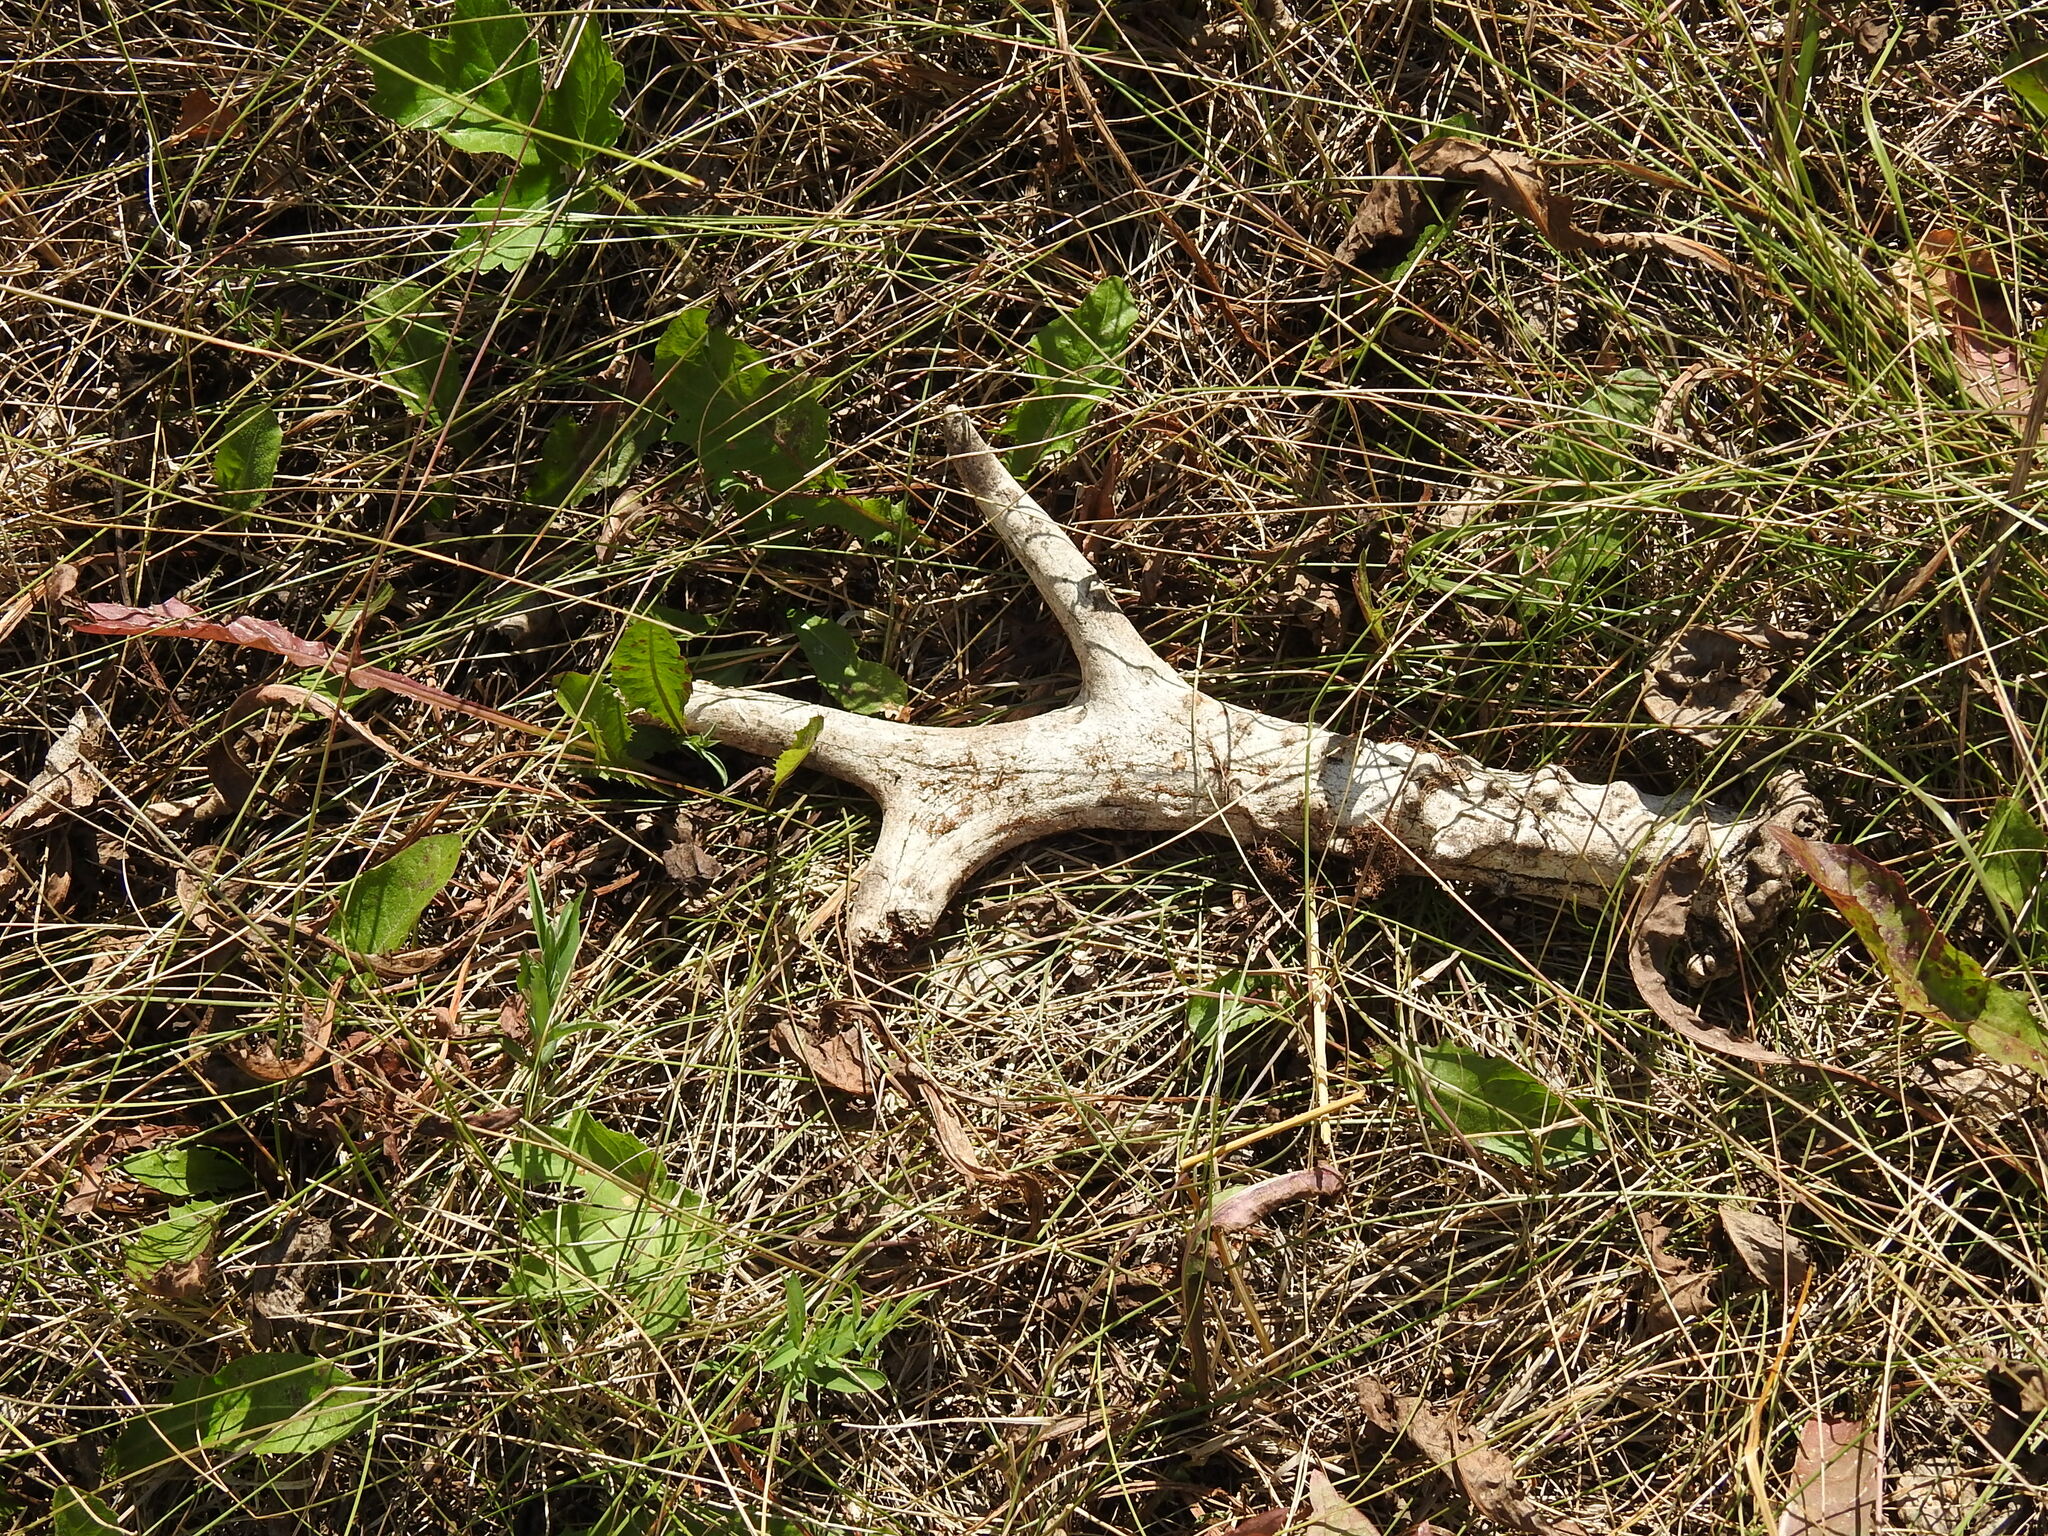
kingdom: Animalia
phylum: Chordata
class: Mammalia
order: Artiodactyla
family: Cervidae
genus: Capreolus
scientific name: Capreolus pygargus
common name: Siberian roe
